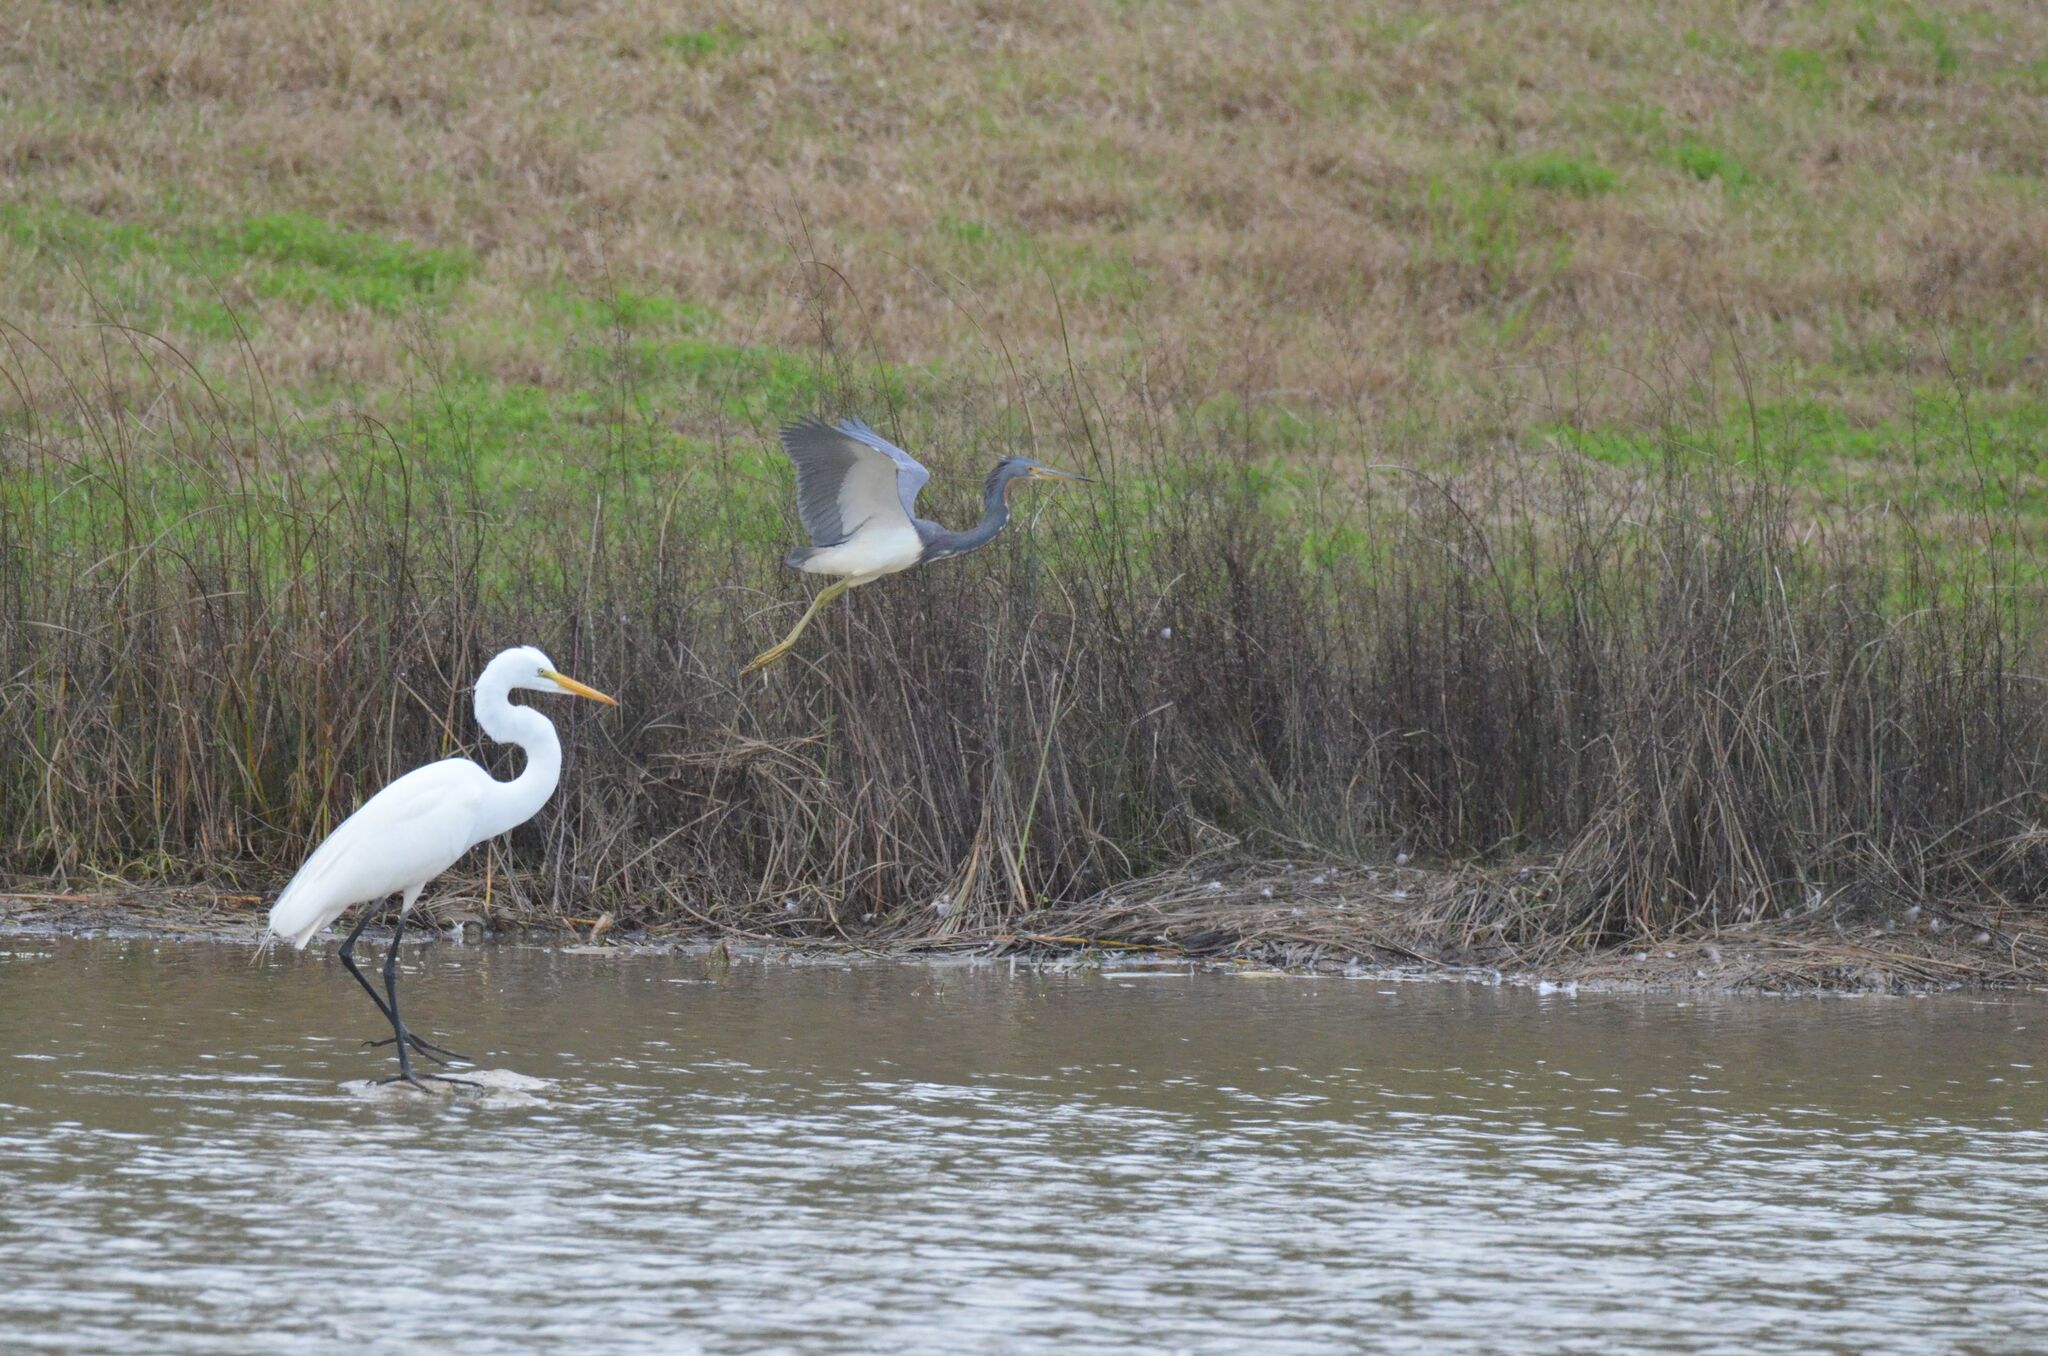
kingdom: Animalia
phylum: Chordata
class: Aves
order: Pelecaniformes
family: Ardeidae
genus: Egretta
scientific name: Egretta tricolor
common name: Tricolored heron
